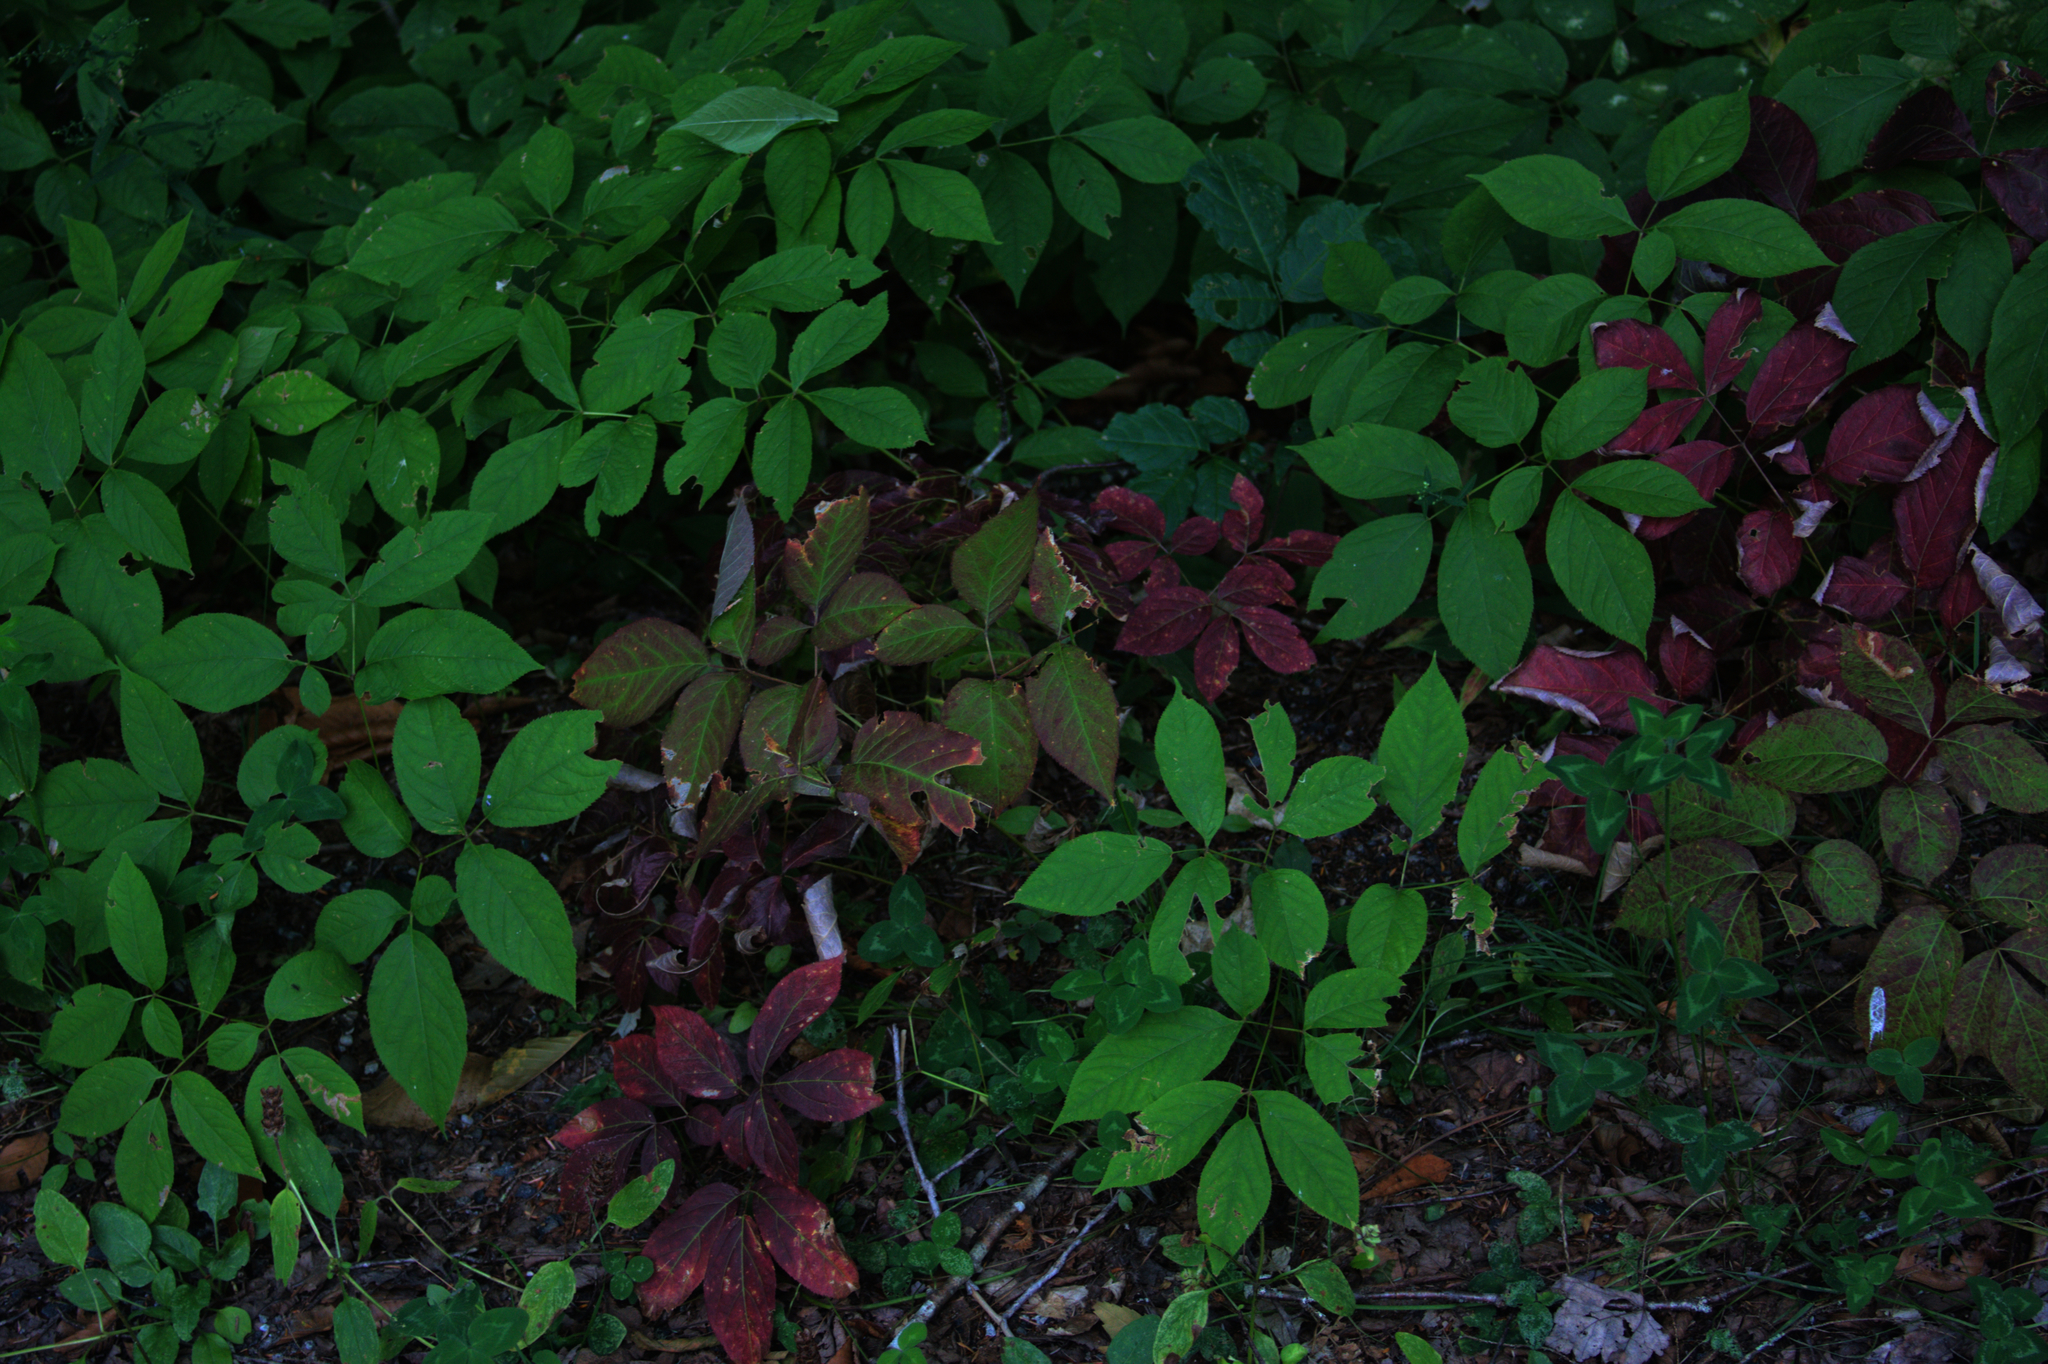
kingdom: Plantae
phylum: Tracheophyta
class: Magnoliopsida
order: Apiales
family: Araliaceae
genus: Aralia
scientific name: Aralia nudicaulis
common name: Wild sarsaparilla
